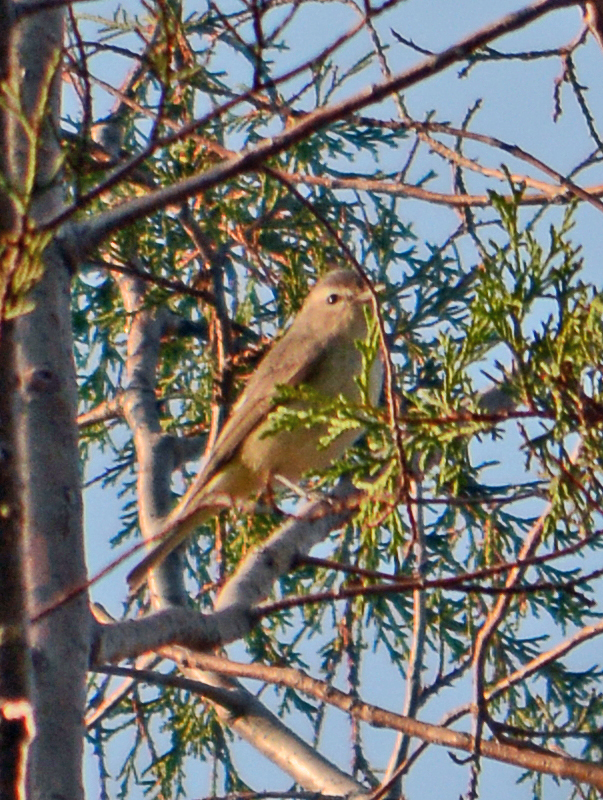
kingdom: Animalia
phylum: Chordata
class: Aves
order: Passeriformes
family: Vireonidae
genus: Vireo
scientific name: Vireo gilvus
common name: Warbling vireo
